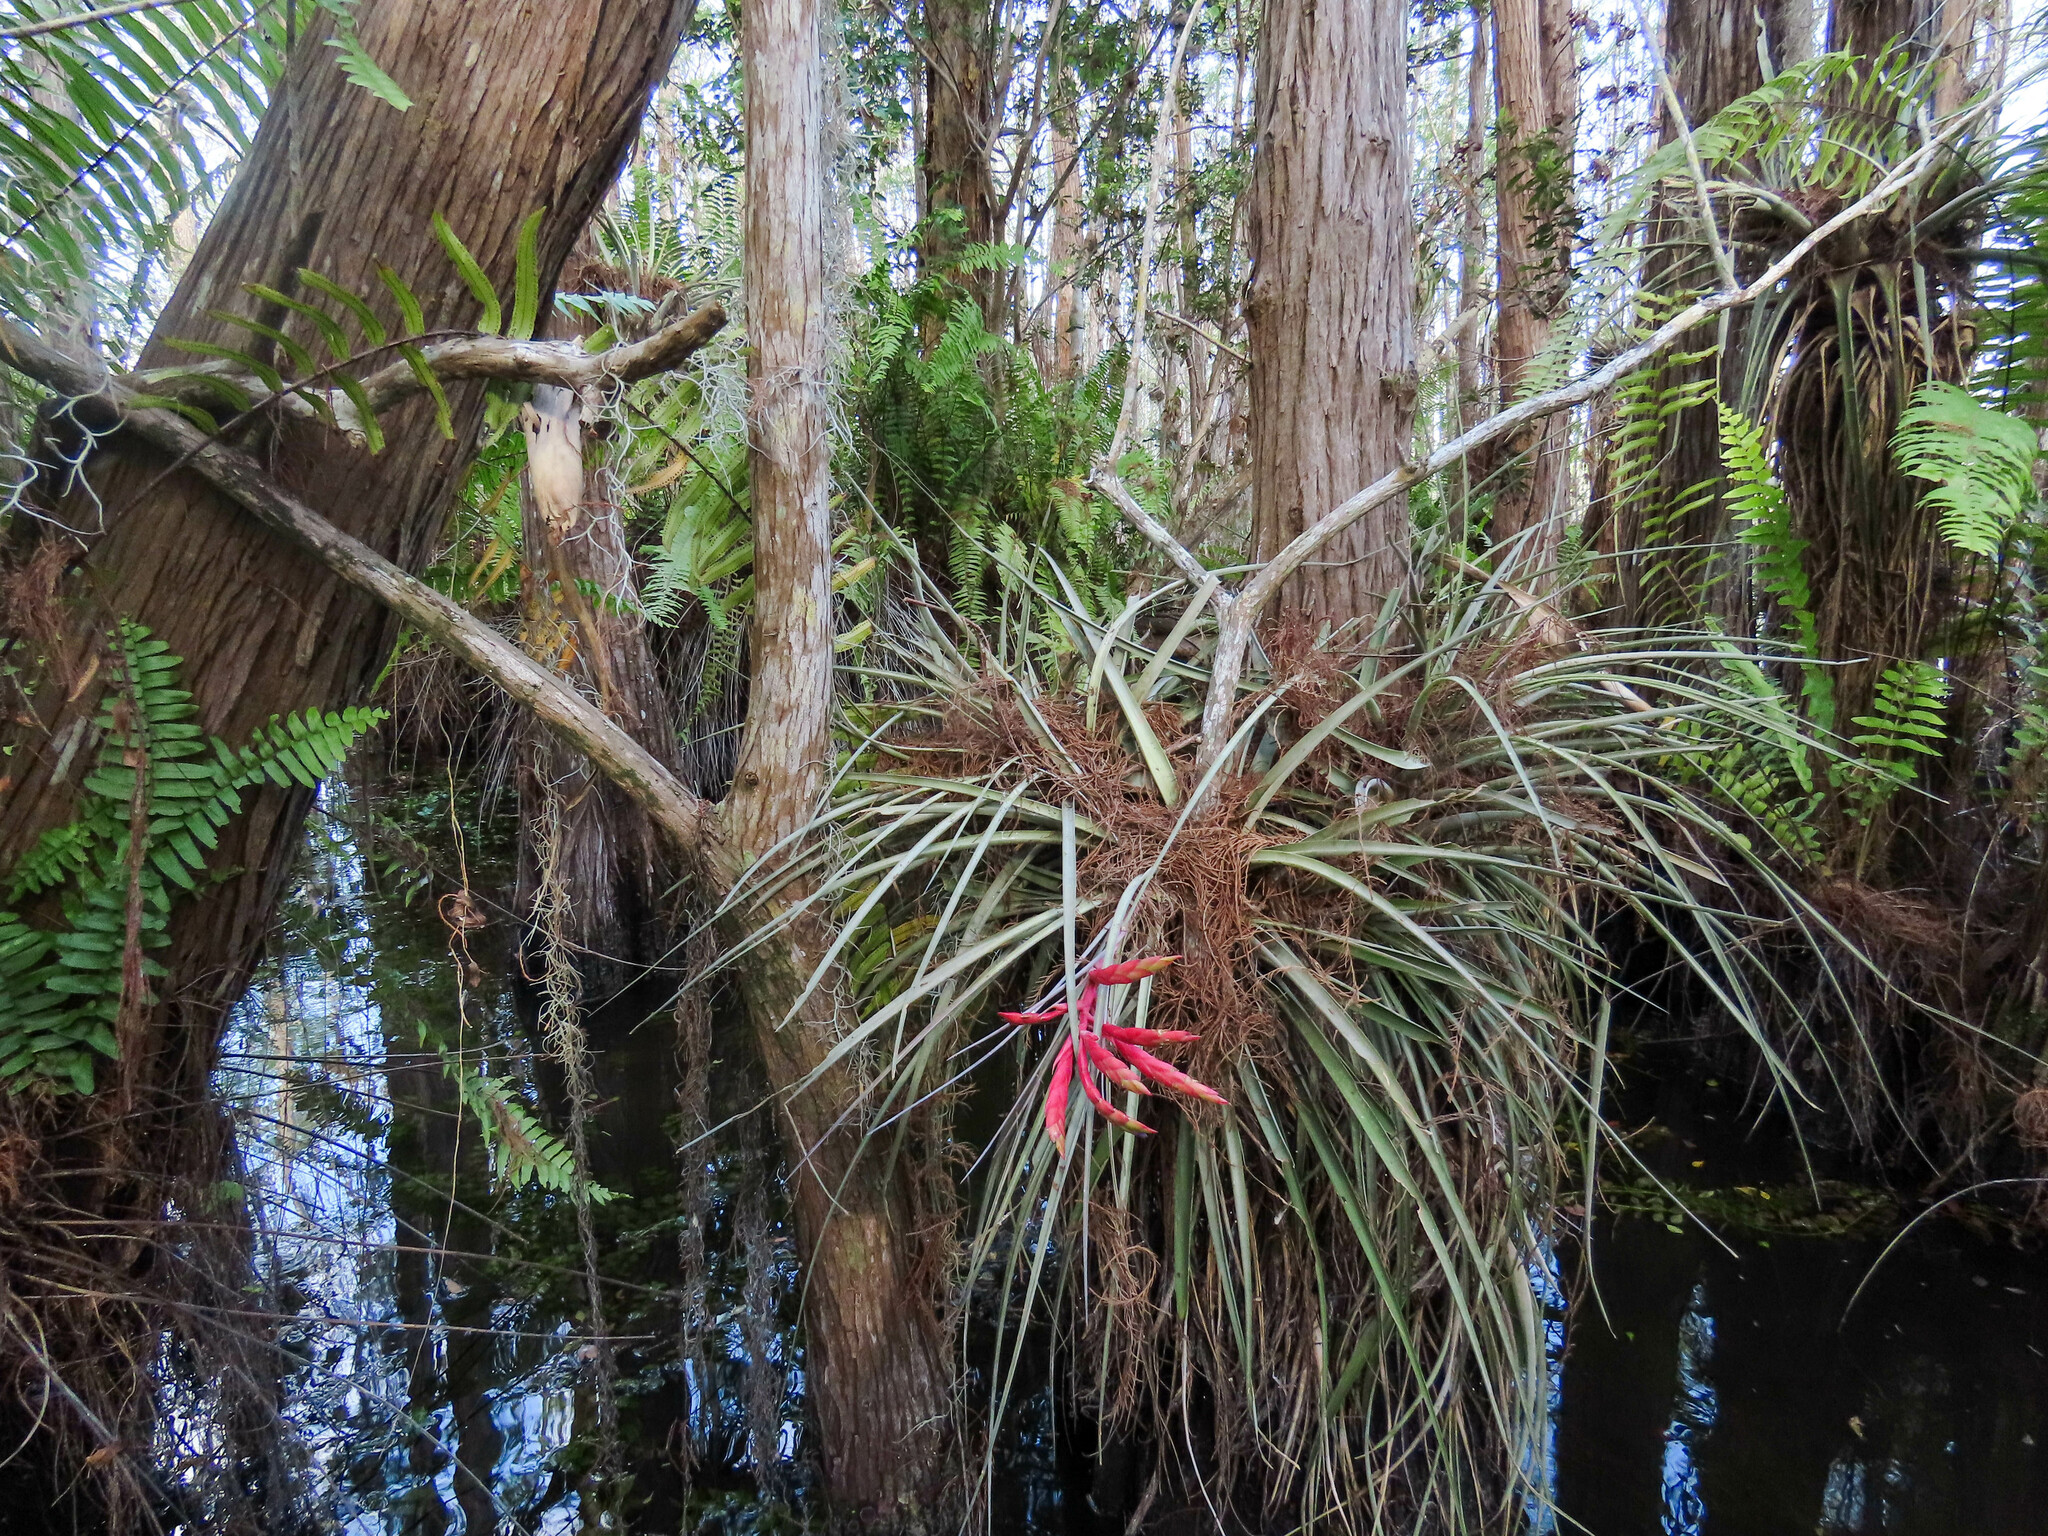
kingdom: Plantae
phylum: Tracheophyta
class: Liliopsida
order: Poales
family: Bromeliaceae
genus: Tillandsia
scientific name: Tillandsia fasciculata
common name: Giant airplant
